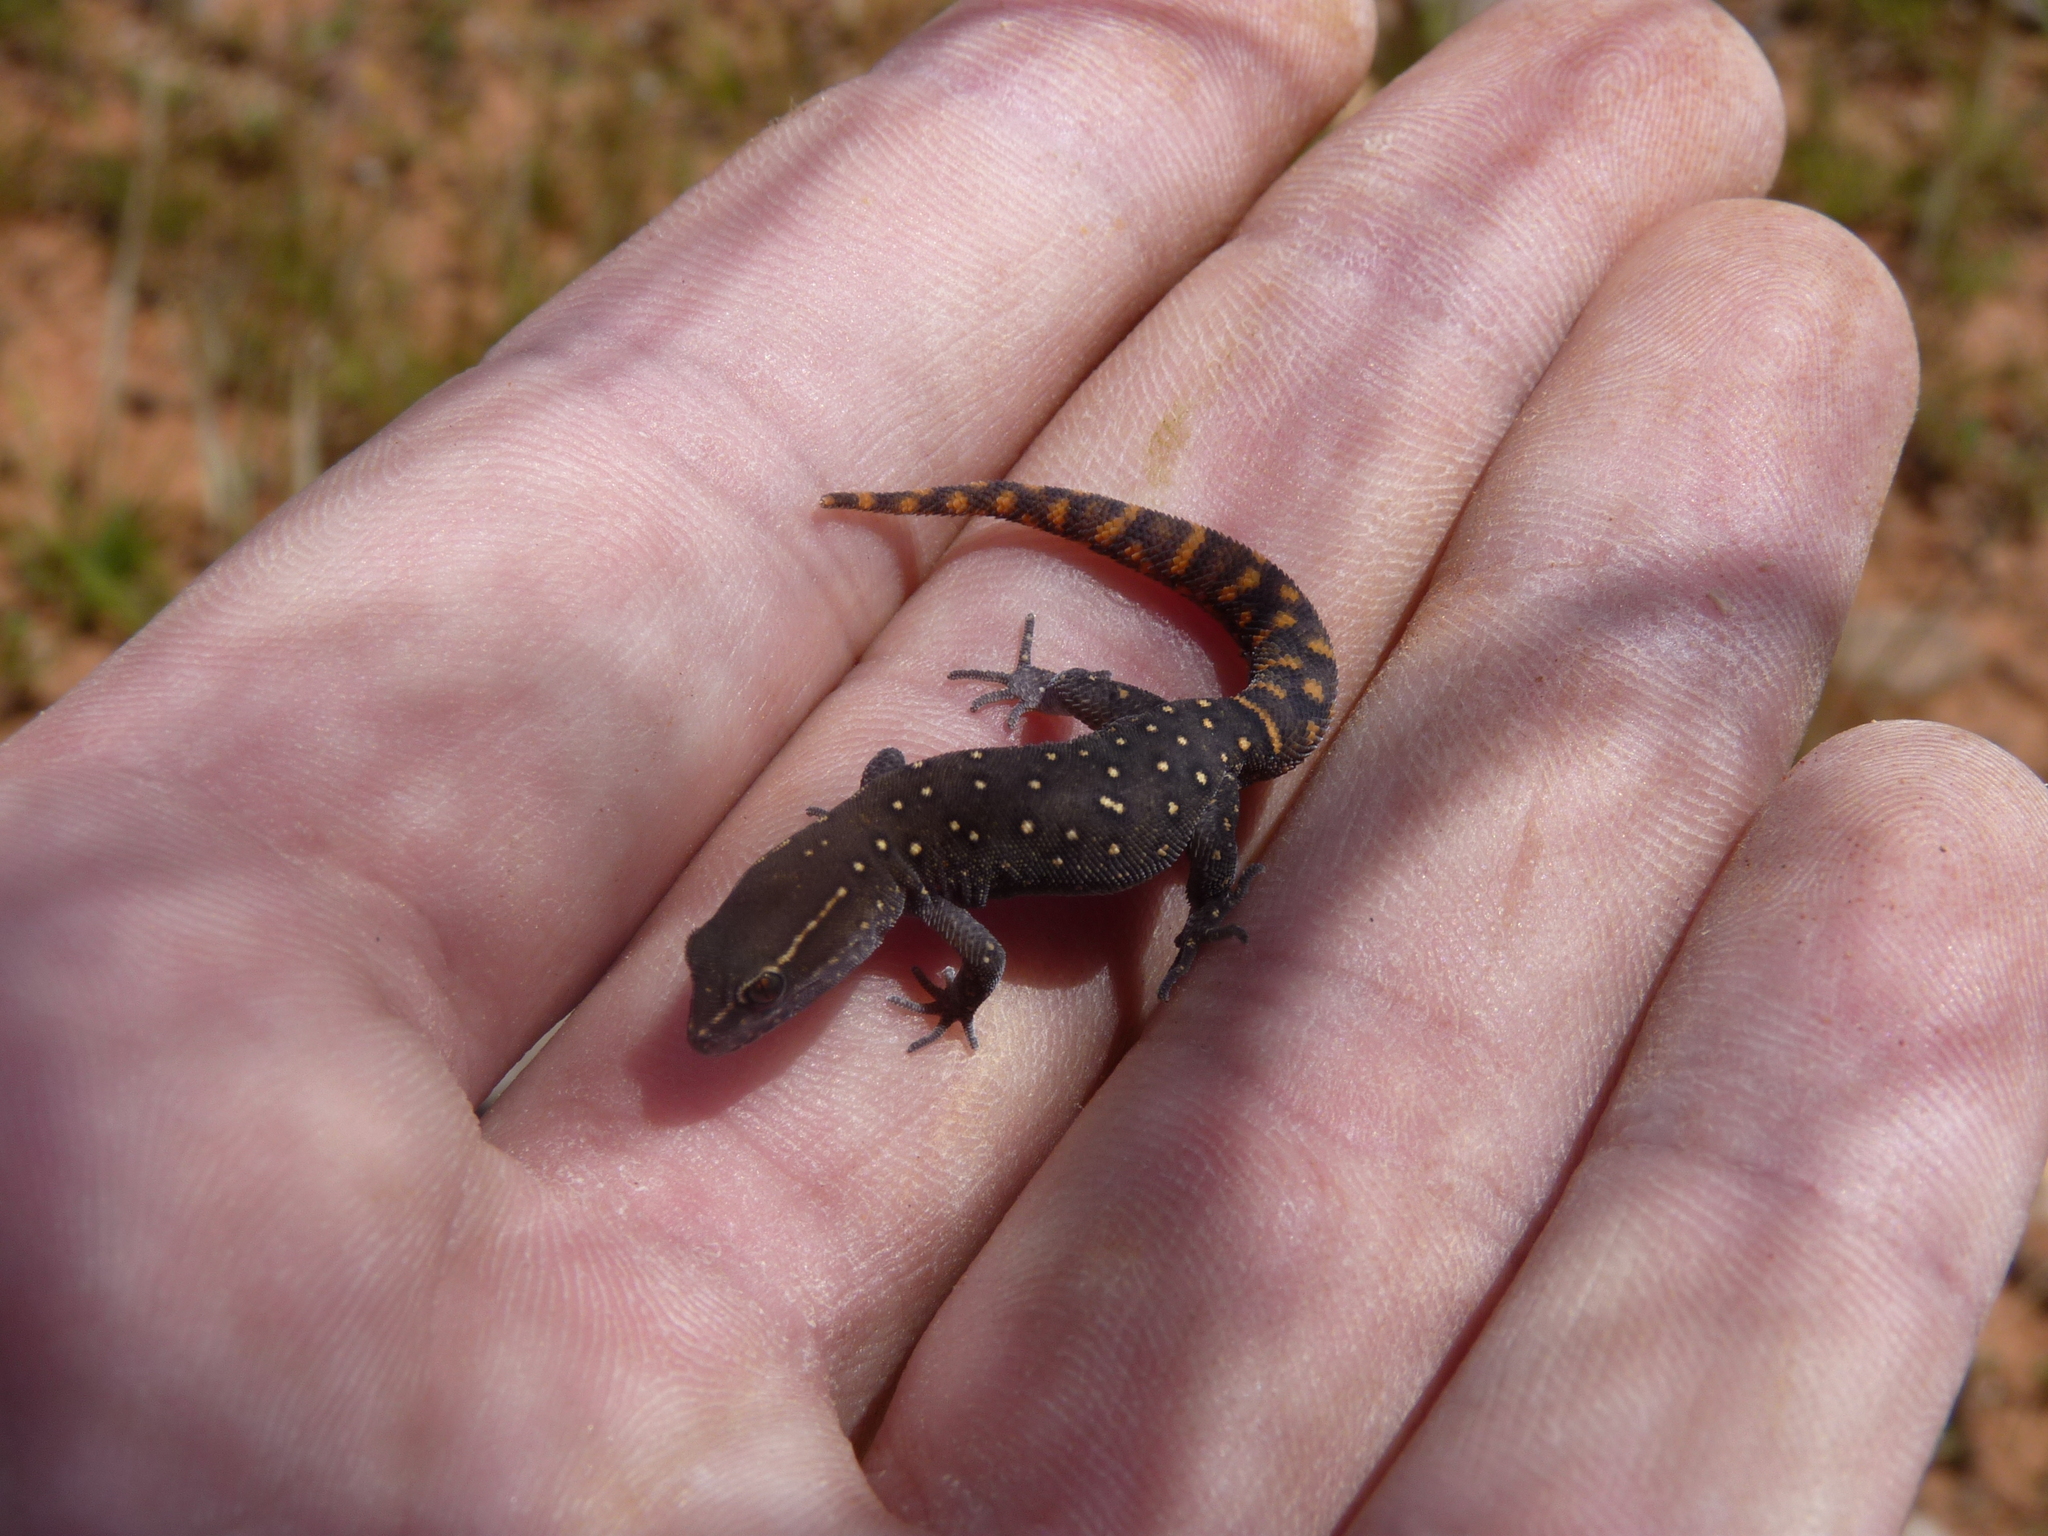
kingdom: Animalia
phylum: Chordata
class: Squamata
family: Sphaerodactylidae
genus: Saurodactylus
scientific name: Saurodactylus harrisii
